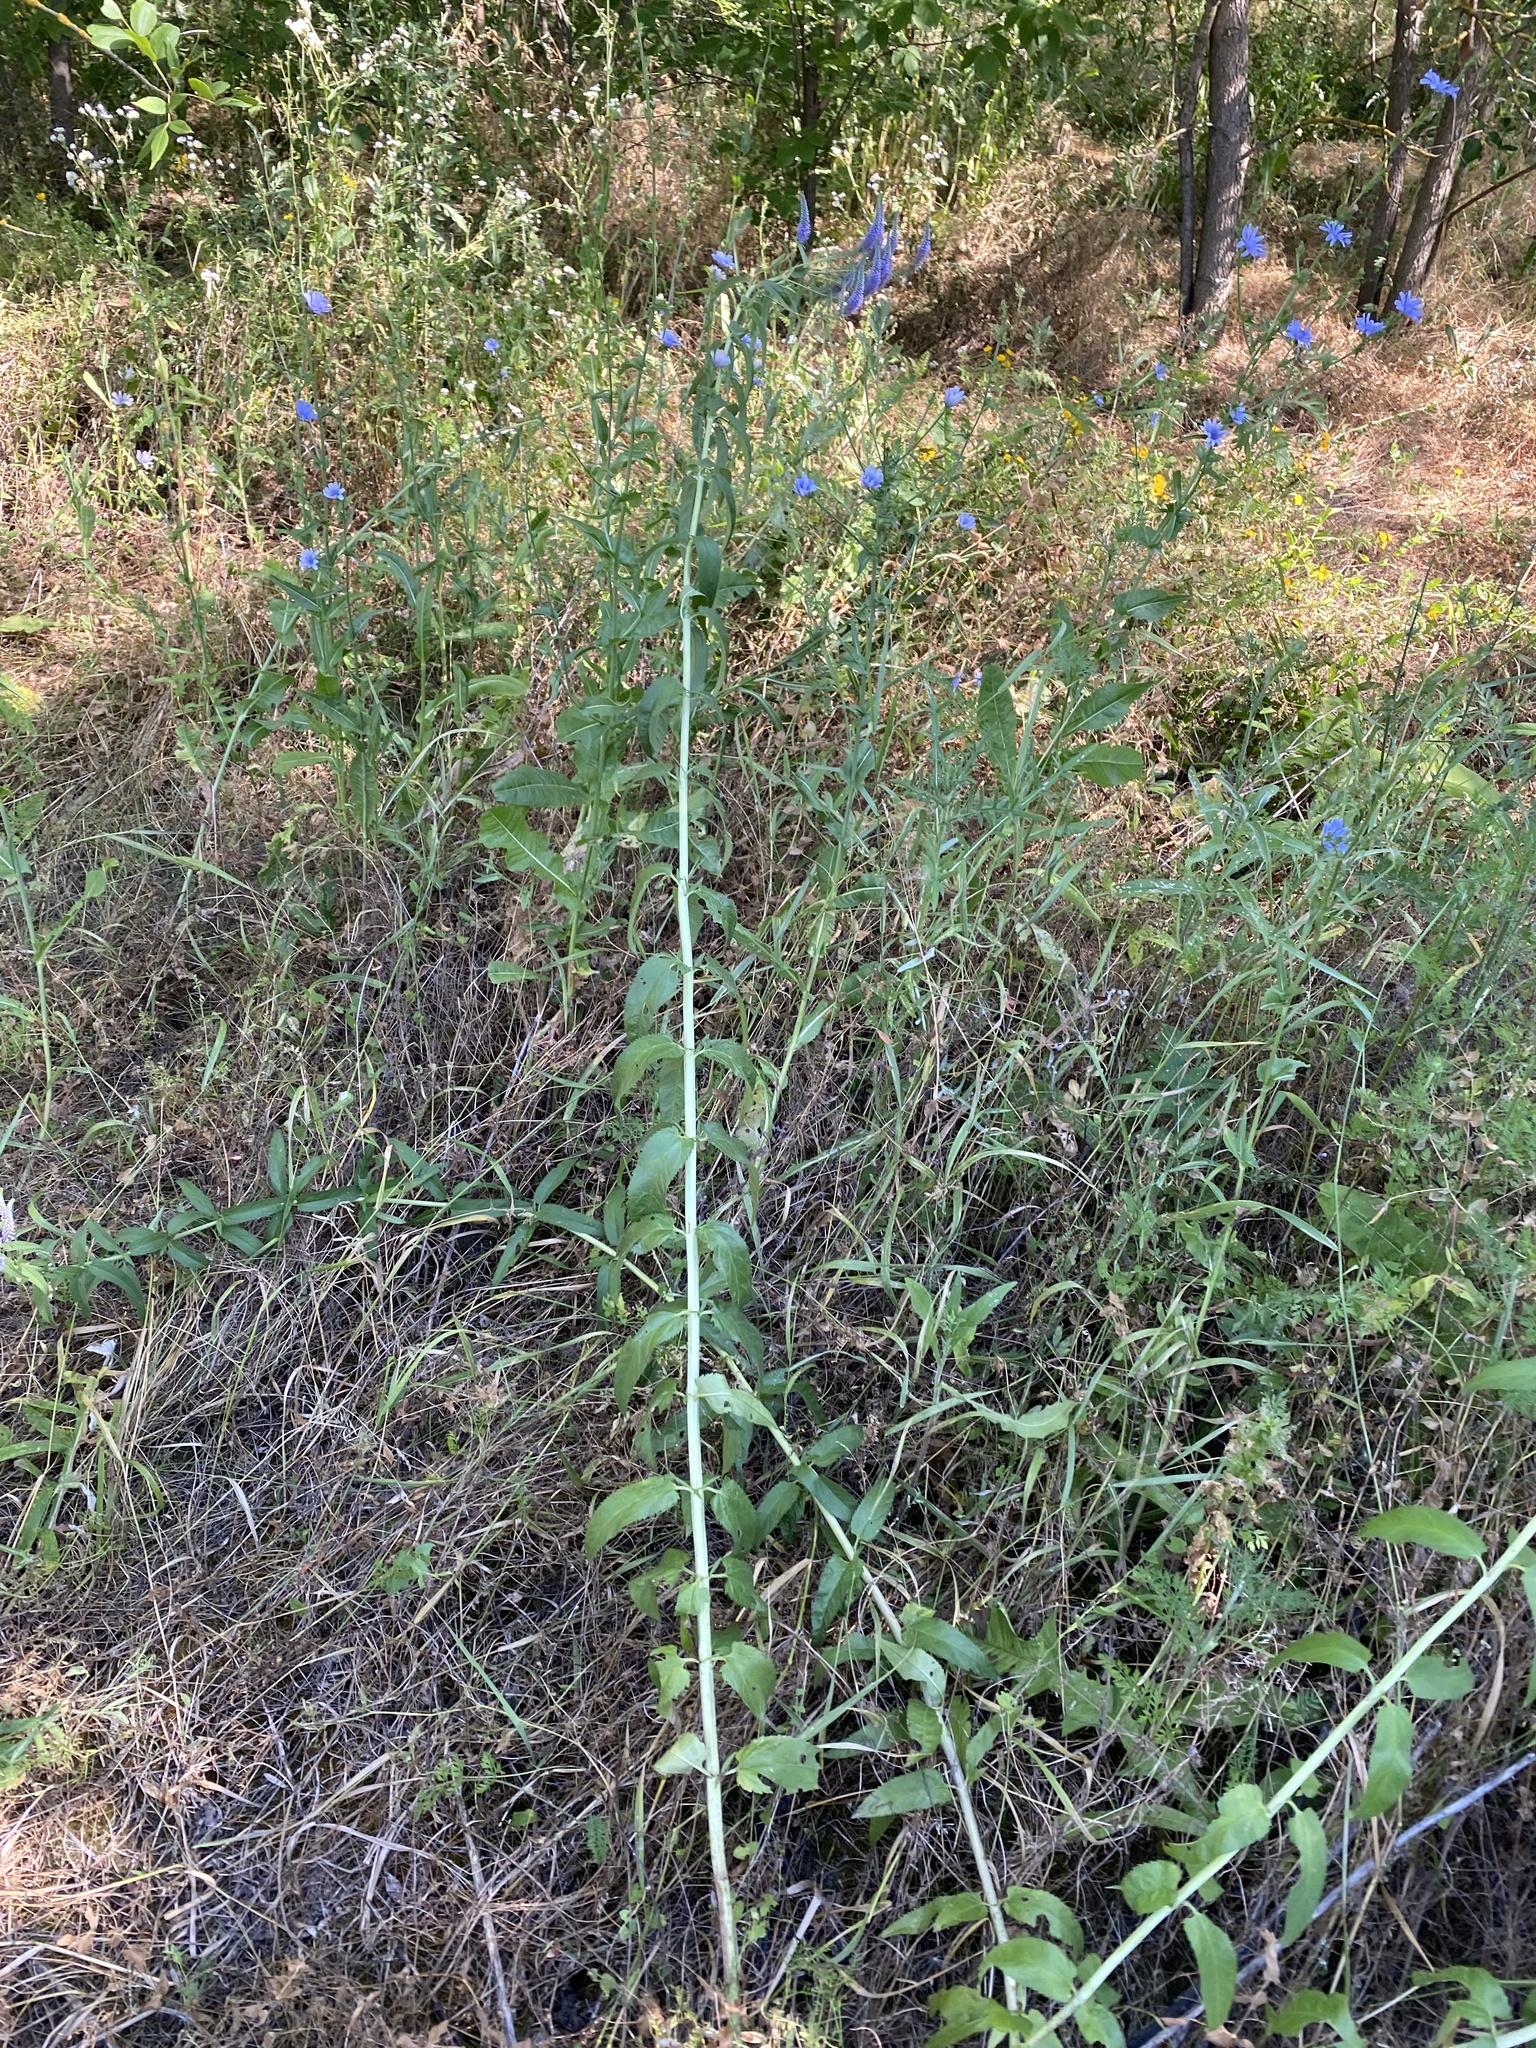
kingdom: Plantae
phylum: Tracheophyta
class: Magnoliopsida
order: Lamiales
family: Plantaginaceae
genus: Veronica
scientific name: Veronica longifolia
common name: Garden speedwell
